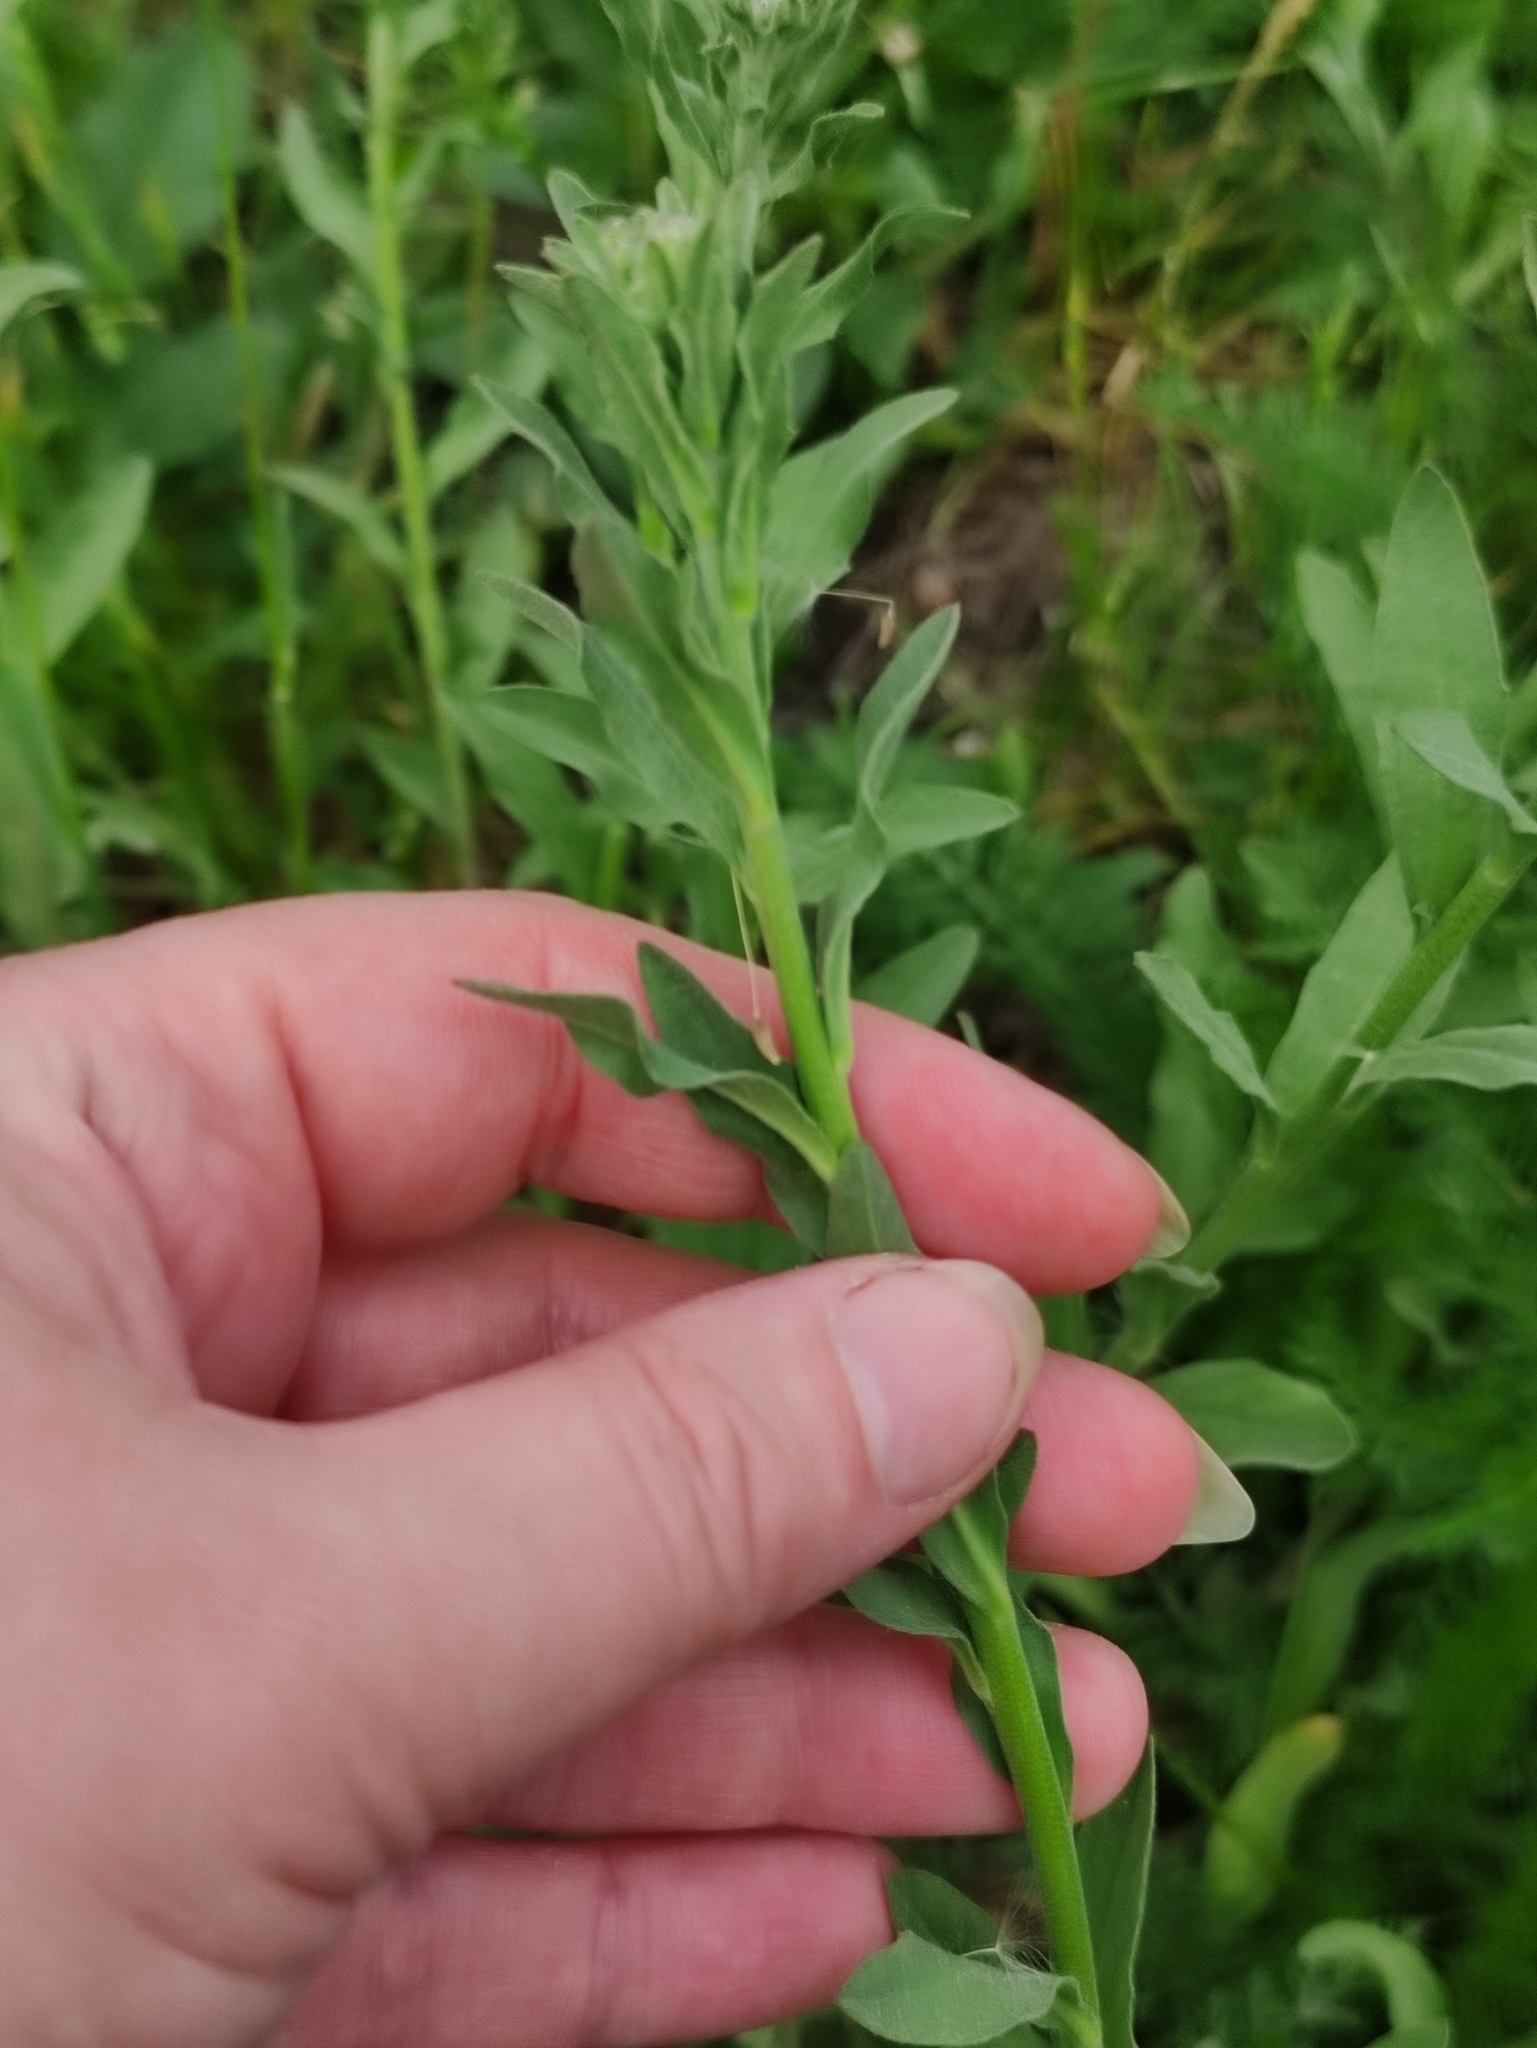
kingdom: Plantae
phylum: Tracheophyta
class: Magnoliopsida
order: Brassicales
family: Brassicaceae
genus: Berteroa
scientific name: Berteroa incana
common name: Hoary alison
